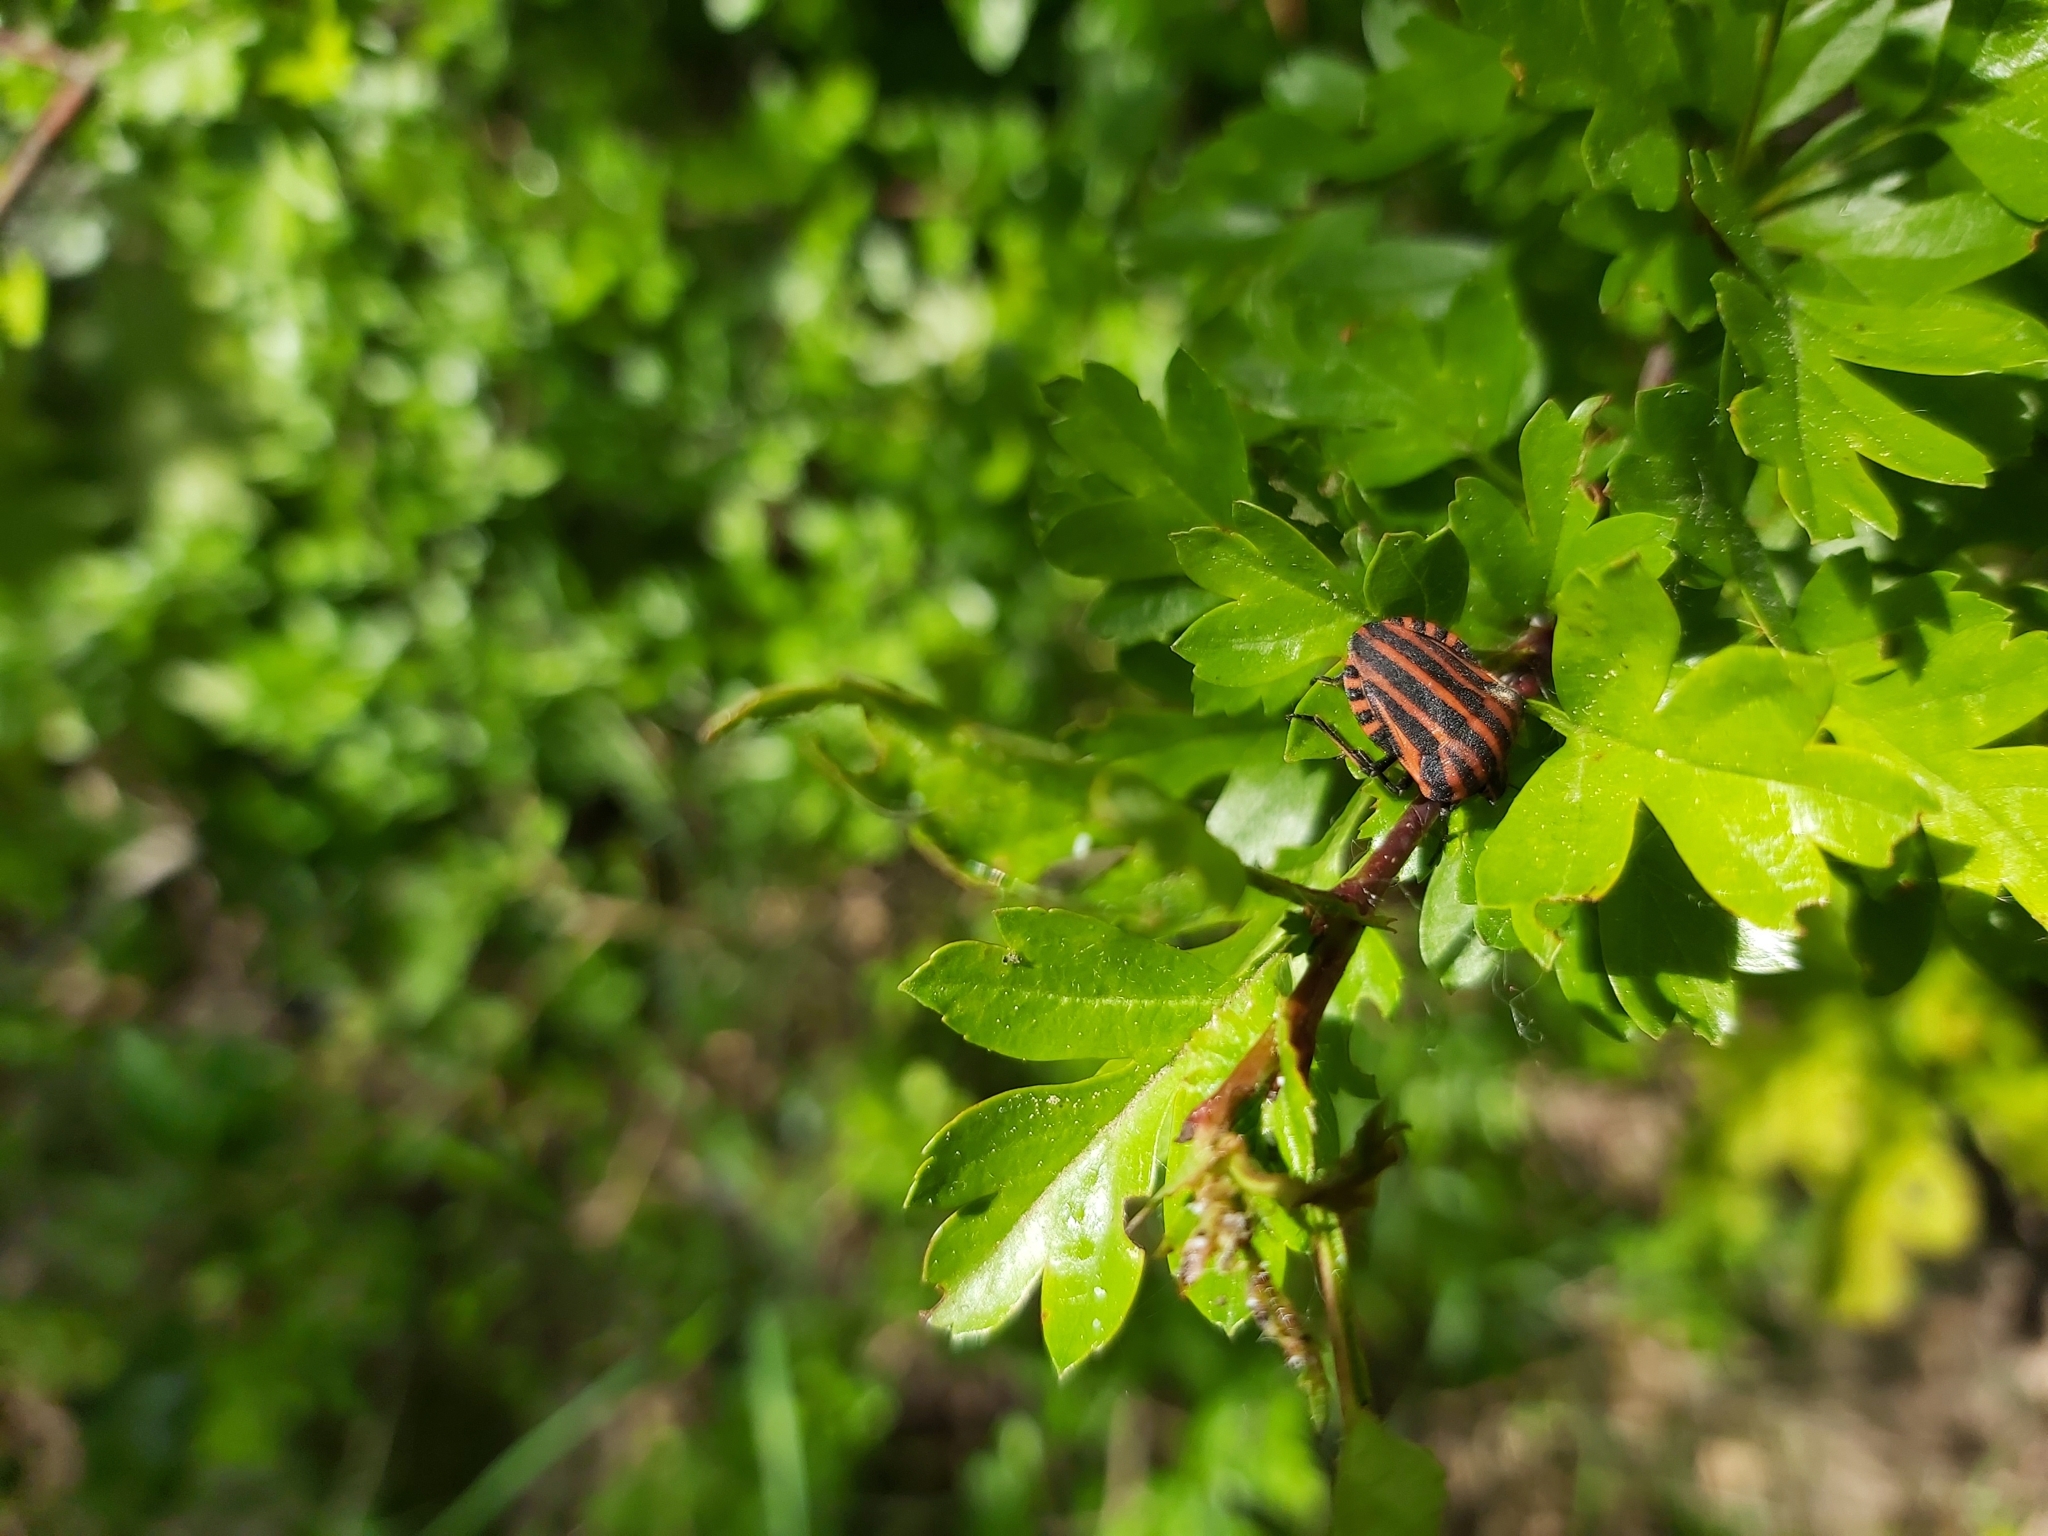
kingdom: Animalia
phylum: Arthropoda
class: Insecta
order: Hemiptera
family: Pentatomidae
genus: Graphosoma
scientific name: Graphosoma italicum
